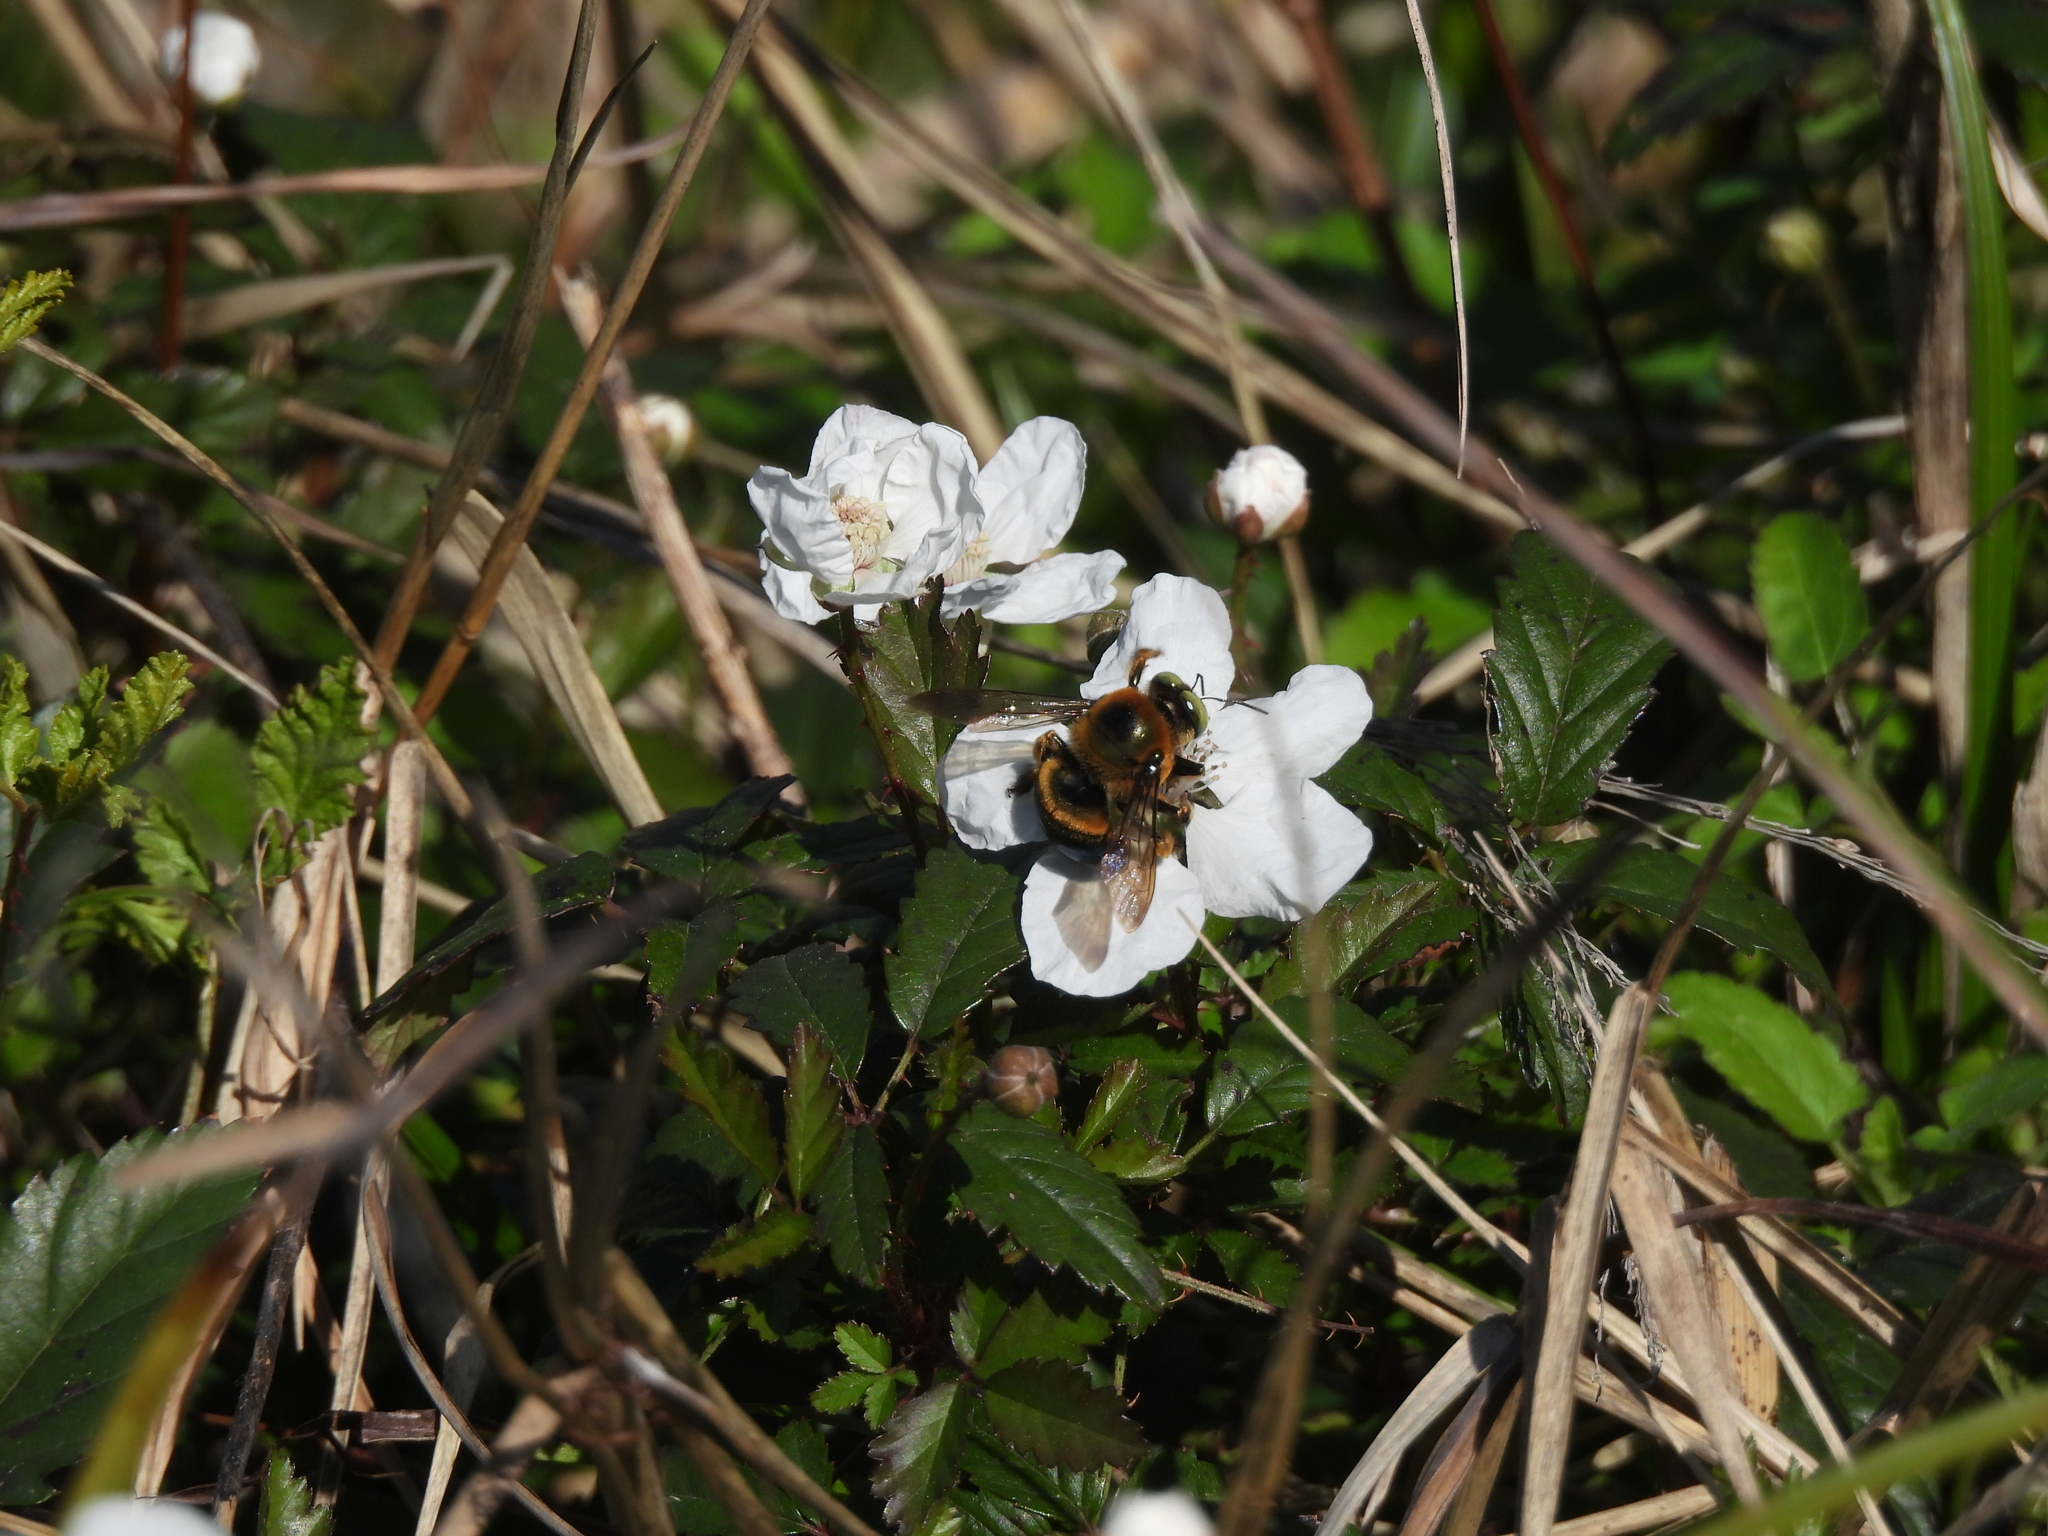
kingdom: Animalia
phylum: Arthropoda
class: Insecta
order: Hymenoptera
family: Apidae
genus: Xylocopa
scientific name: Xylocopa micans
